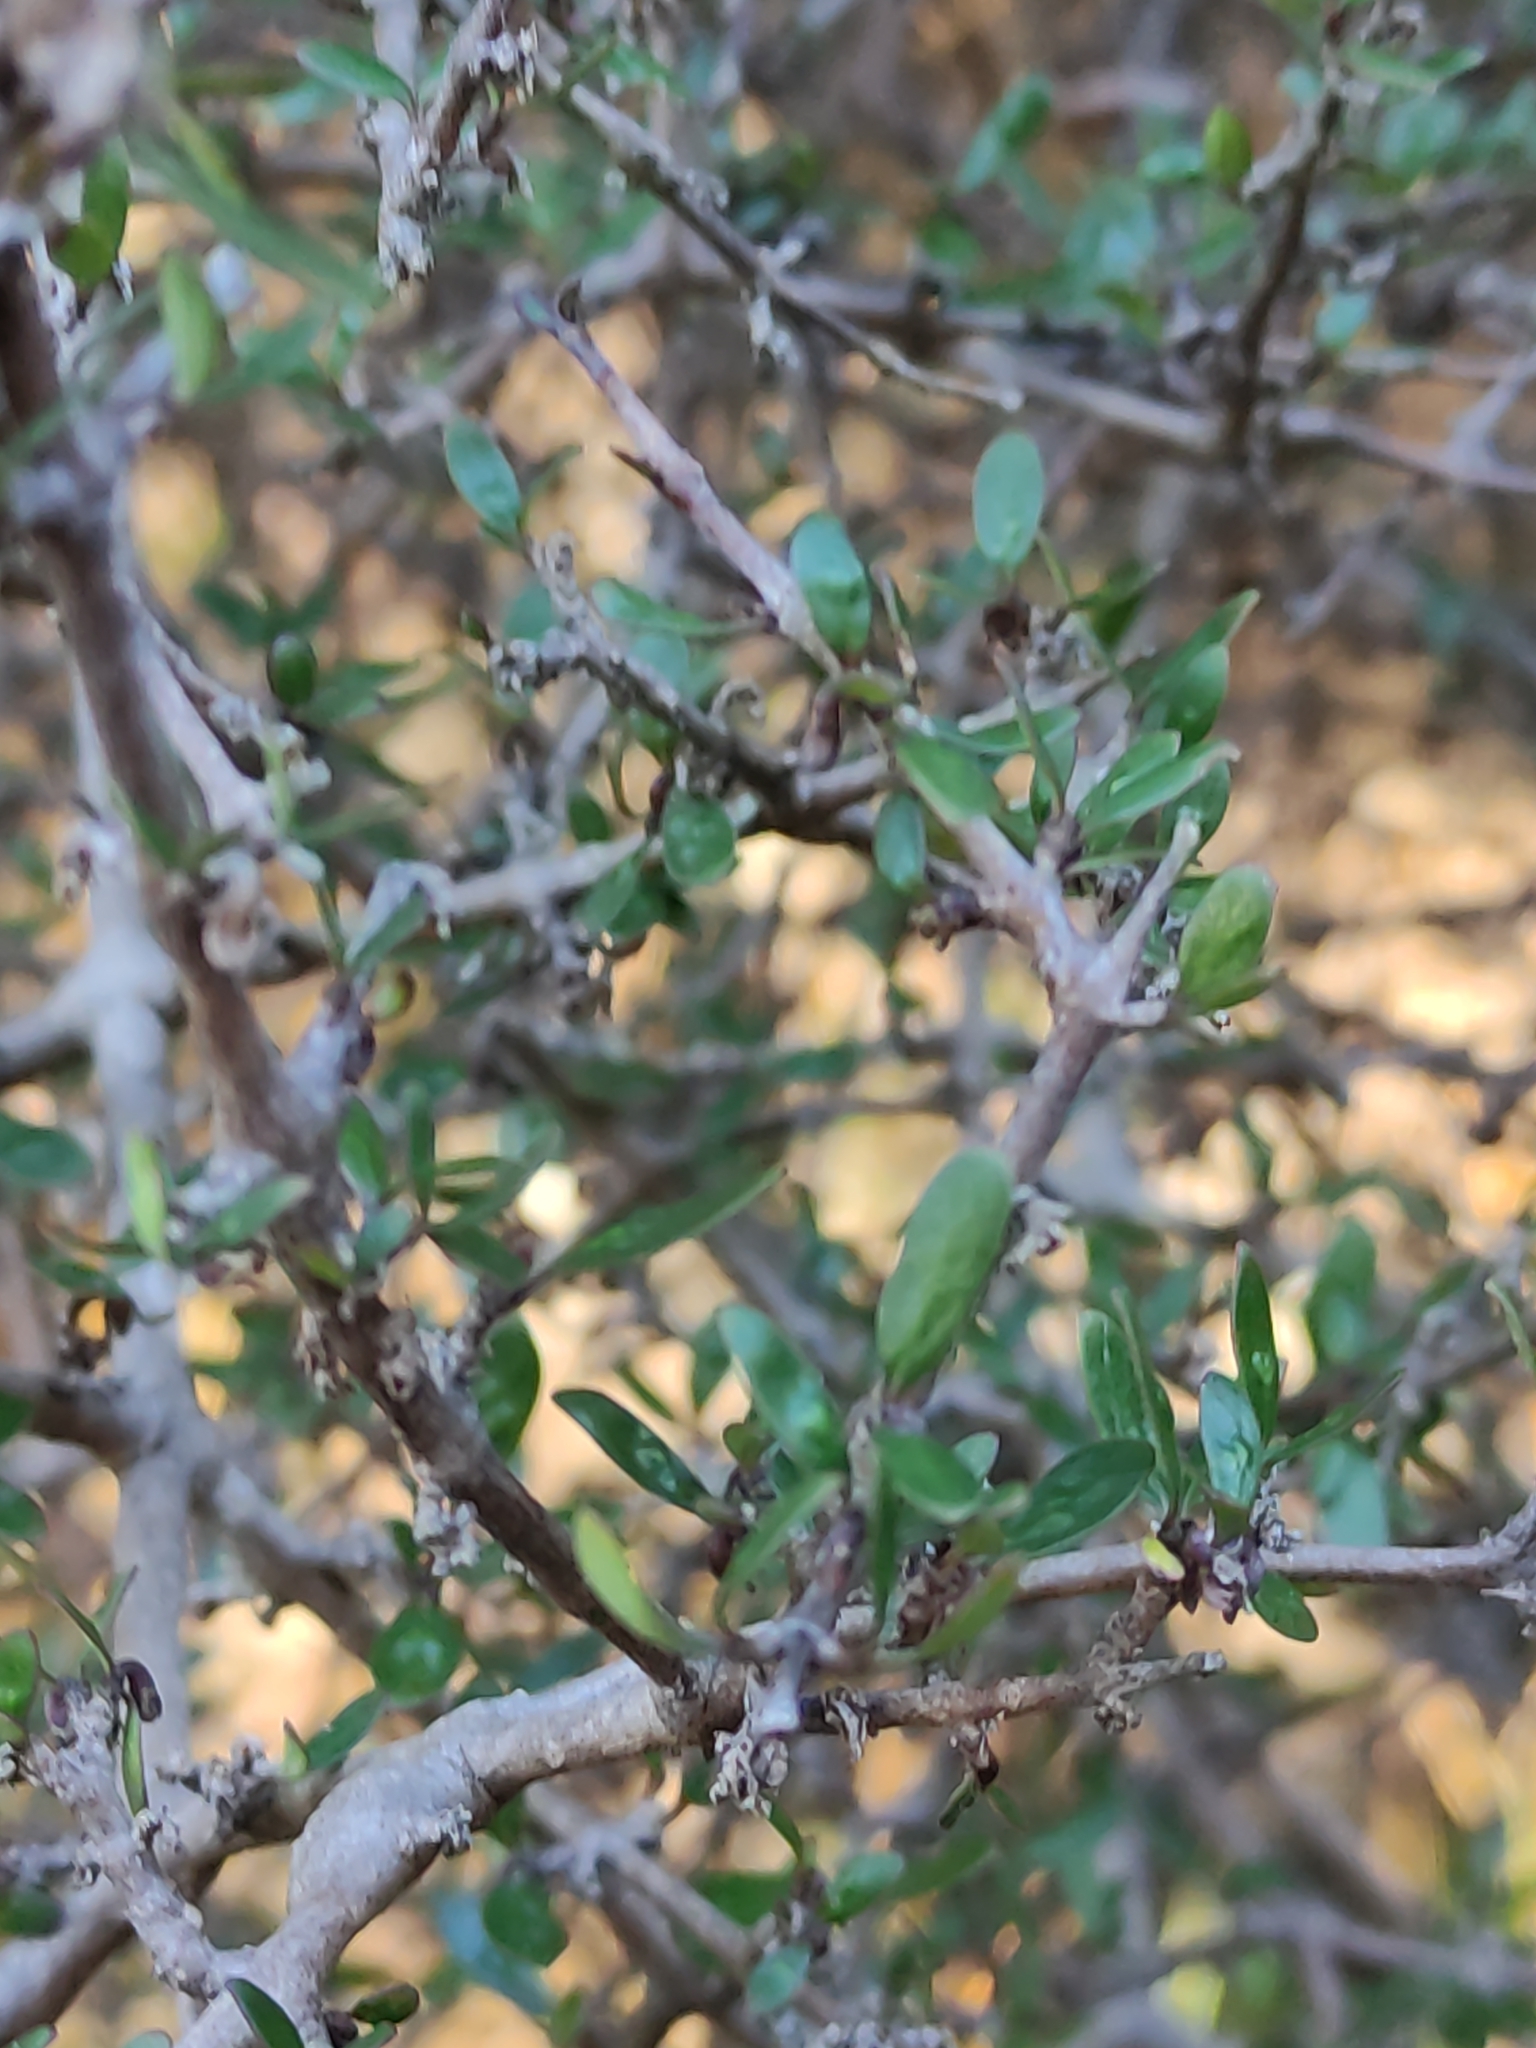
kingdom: Plantae
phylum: Tracheophyta
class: Magnoliopsida
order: Gentianales
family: Rubiaceae
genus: Coprosma
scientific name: Coprosma propinqua
